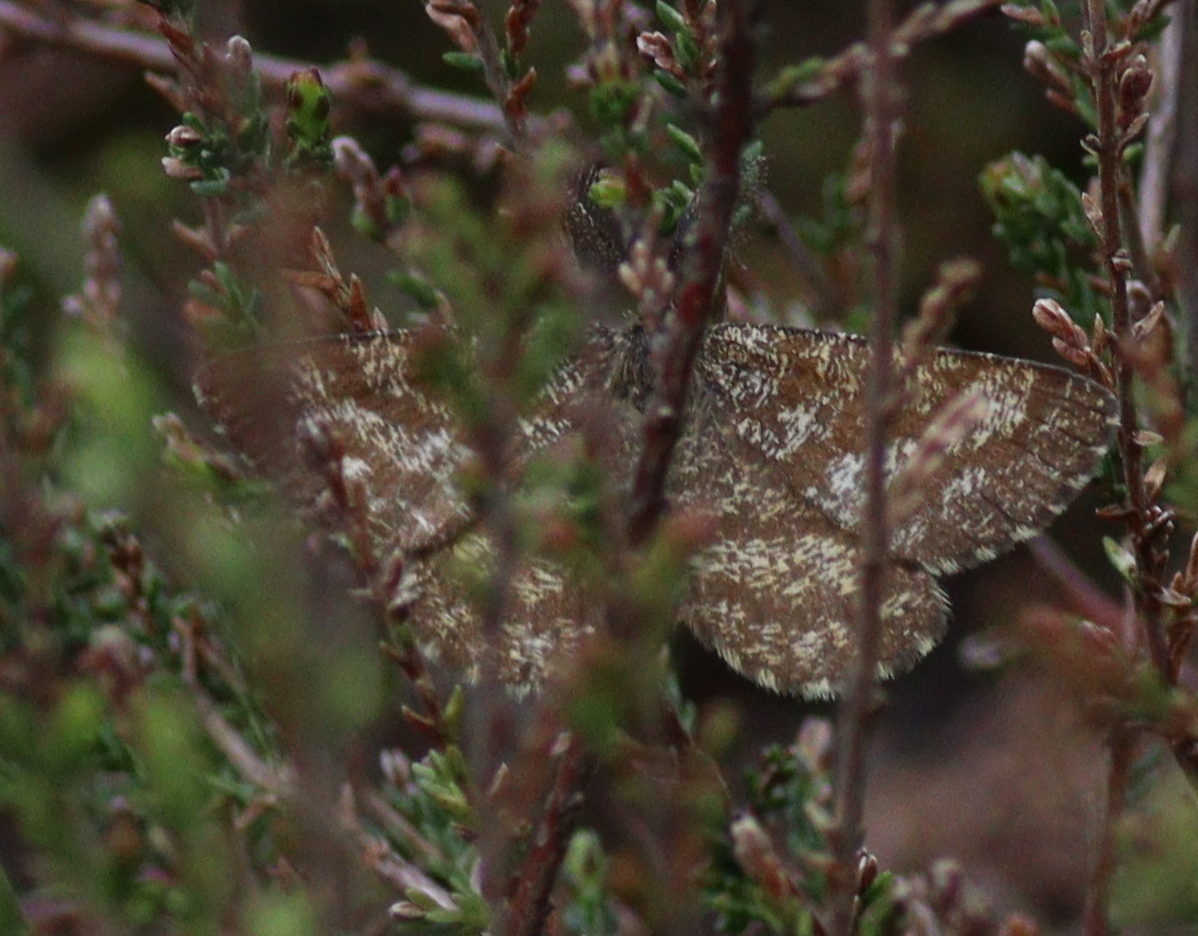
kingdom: Animalia
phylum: Arthropoda
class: Insecta
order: Lepidoptera
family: Geometridae
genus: Ematurga
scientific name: Ematurga atomaria
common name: Common heath
